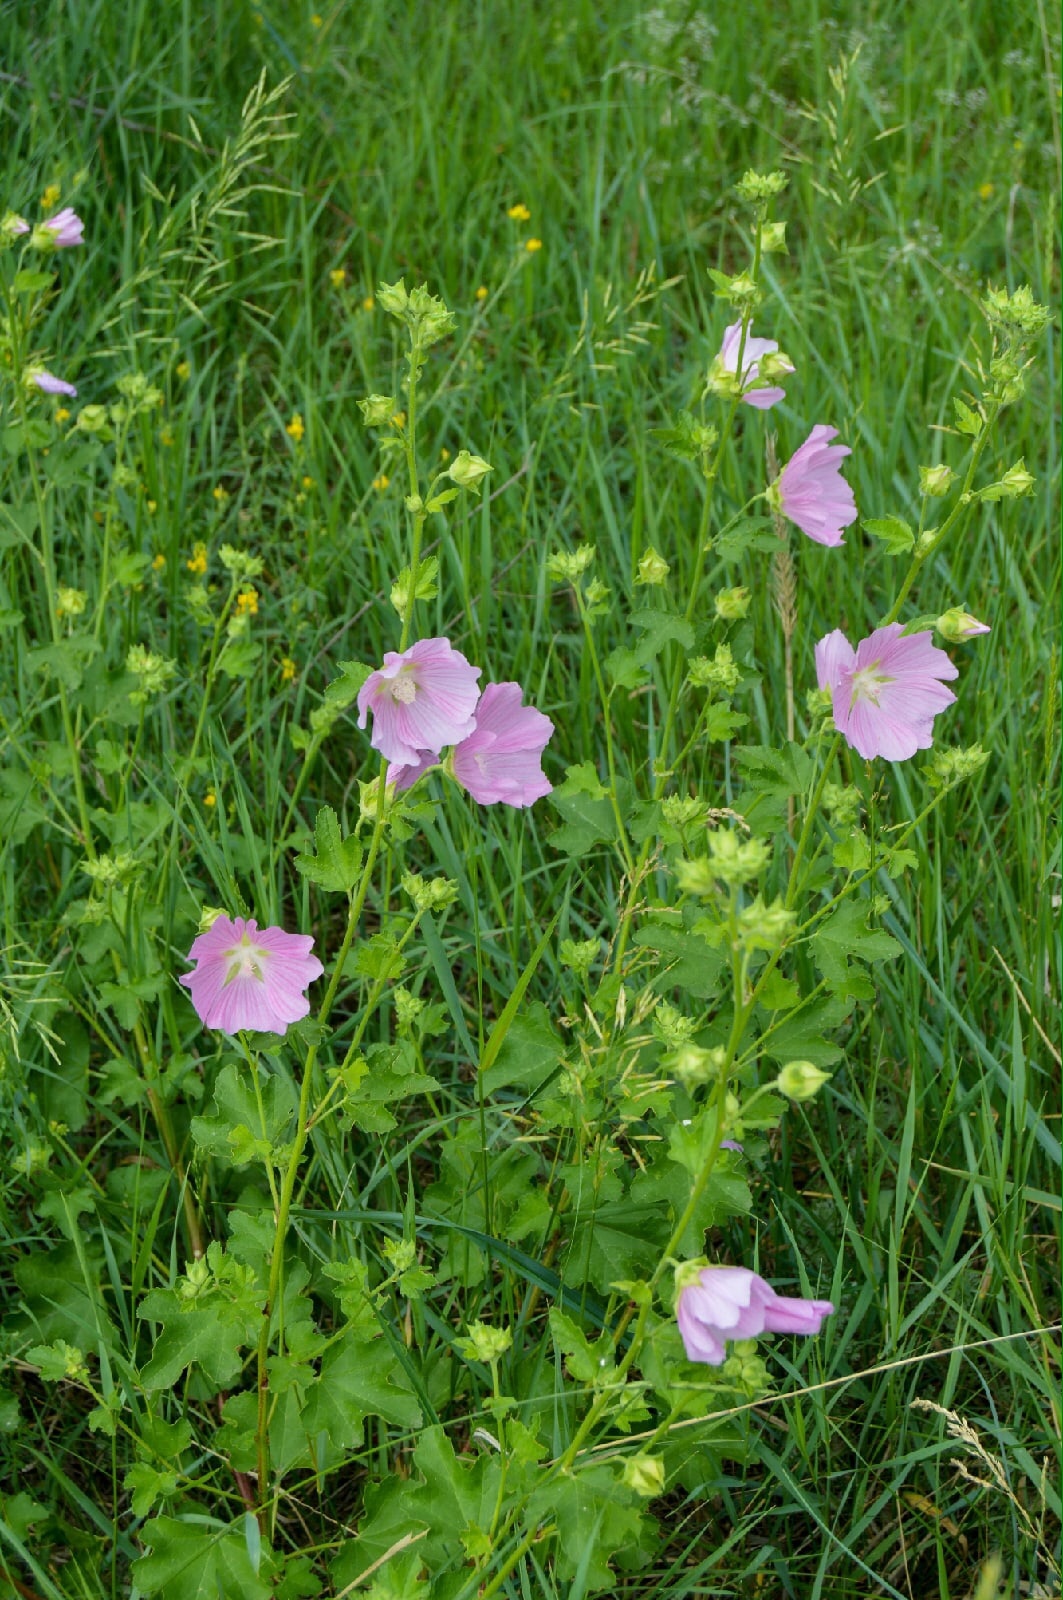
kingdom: Plantae
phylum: Tracheophyta
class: Magnoliopsida
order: Malvales
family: Malvaceae
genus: Malva
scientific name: Malva thuringiaca
